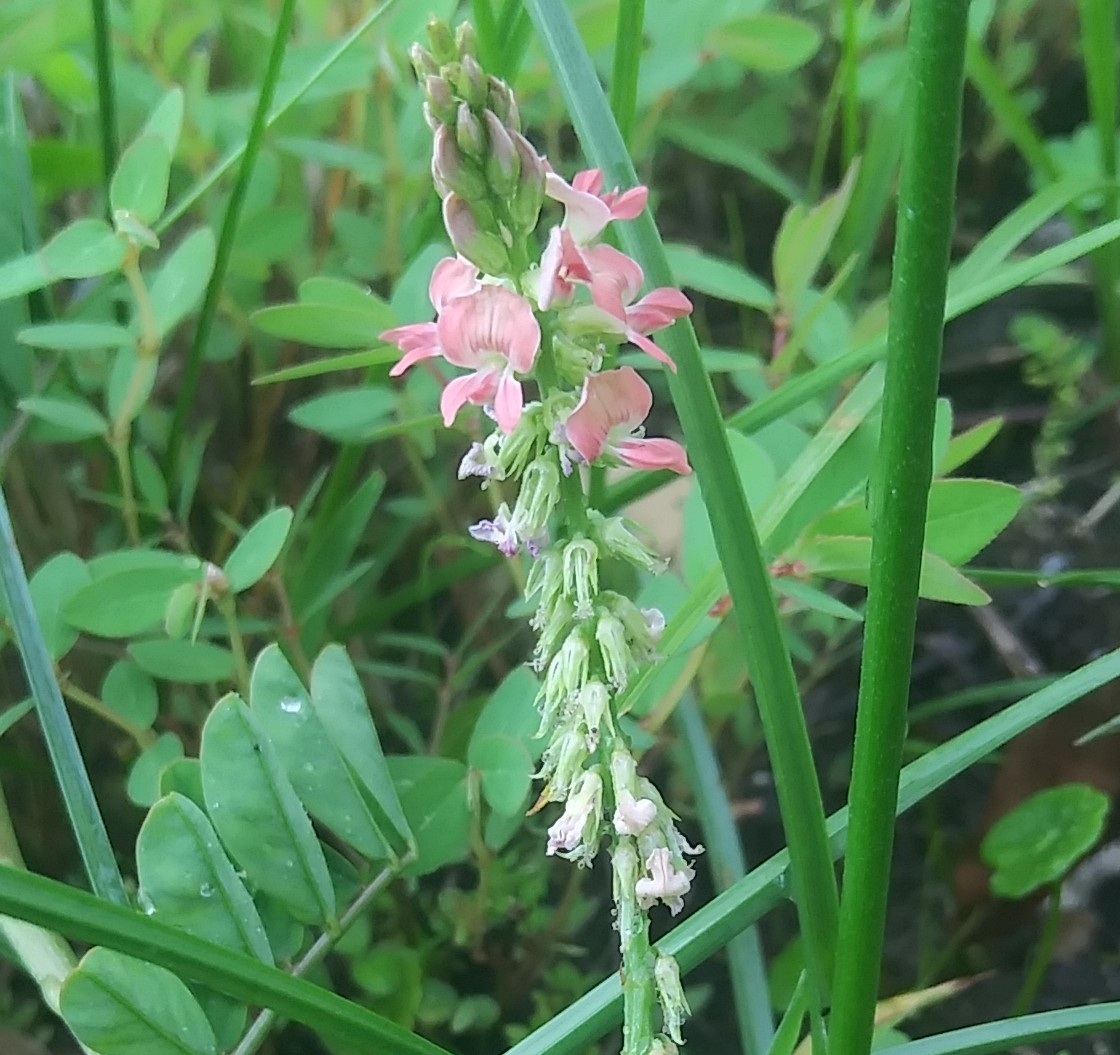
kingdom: Plantae
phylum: Tracheophyta
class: Magnoliopsida
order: Fabales
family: Fabaceae
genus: Indigofera
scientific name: Indigofera spicata
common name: Creeping indigo
